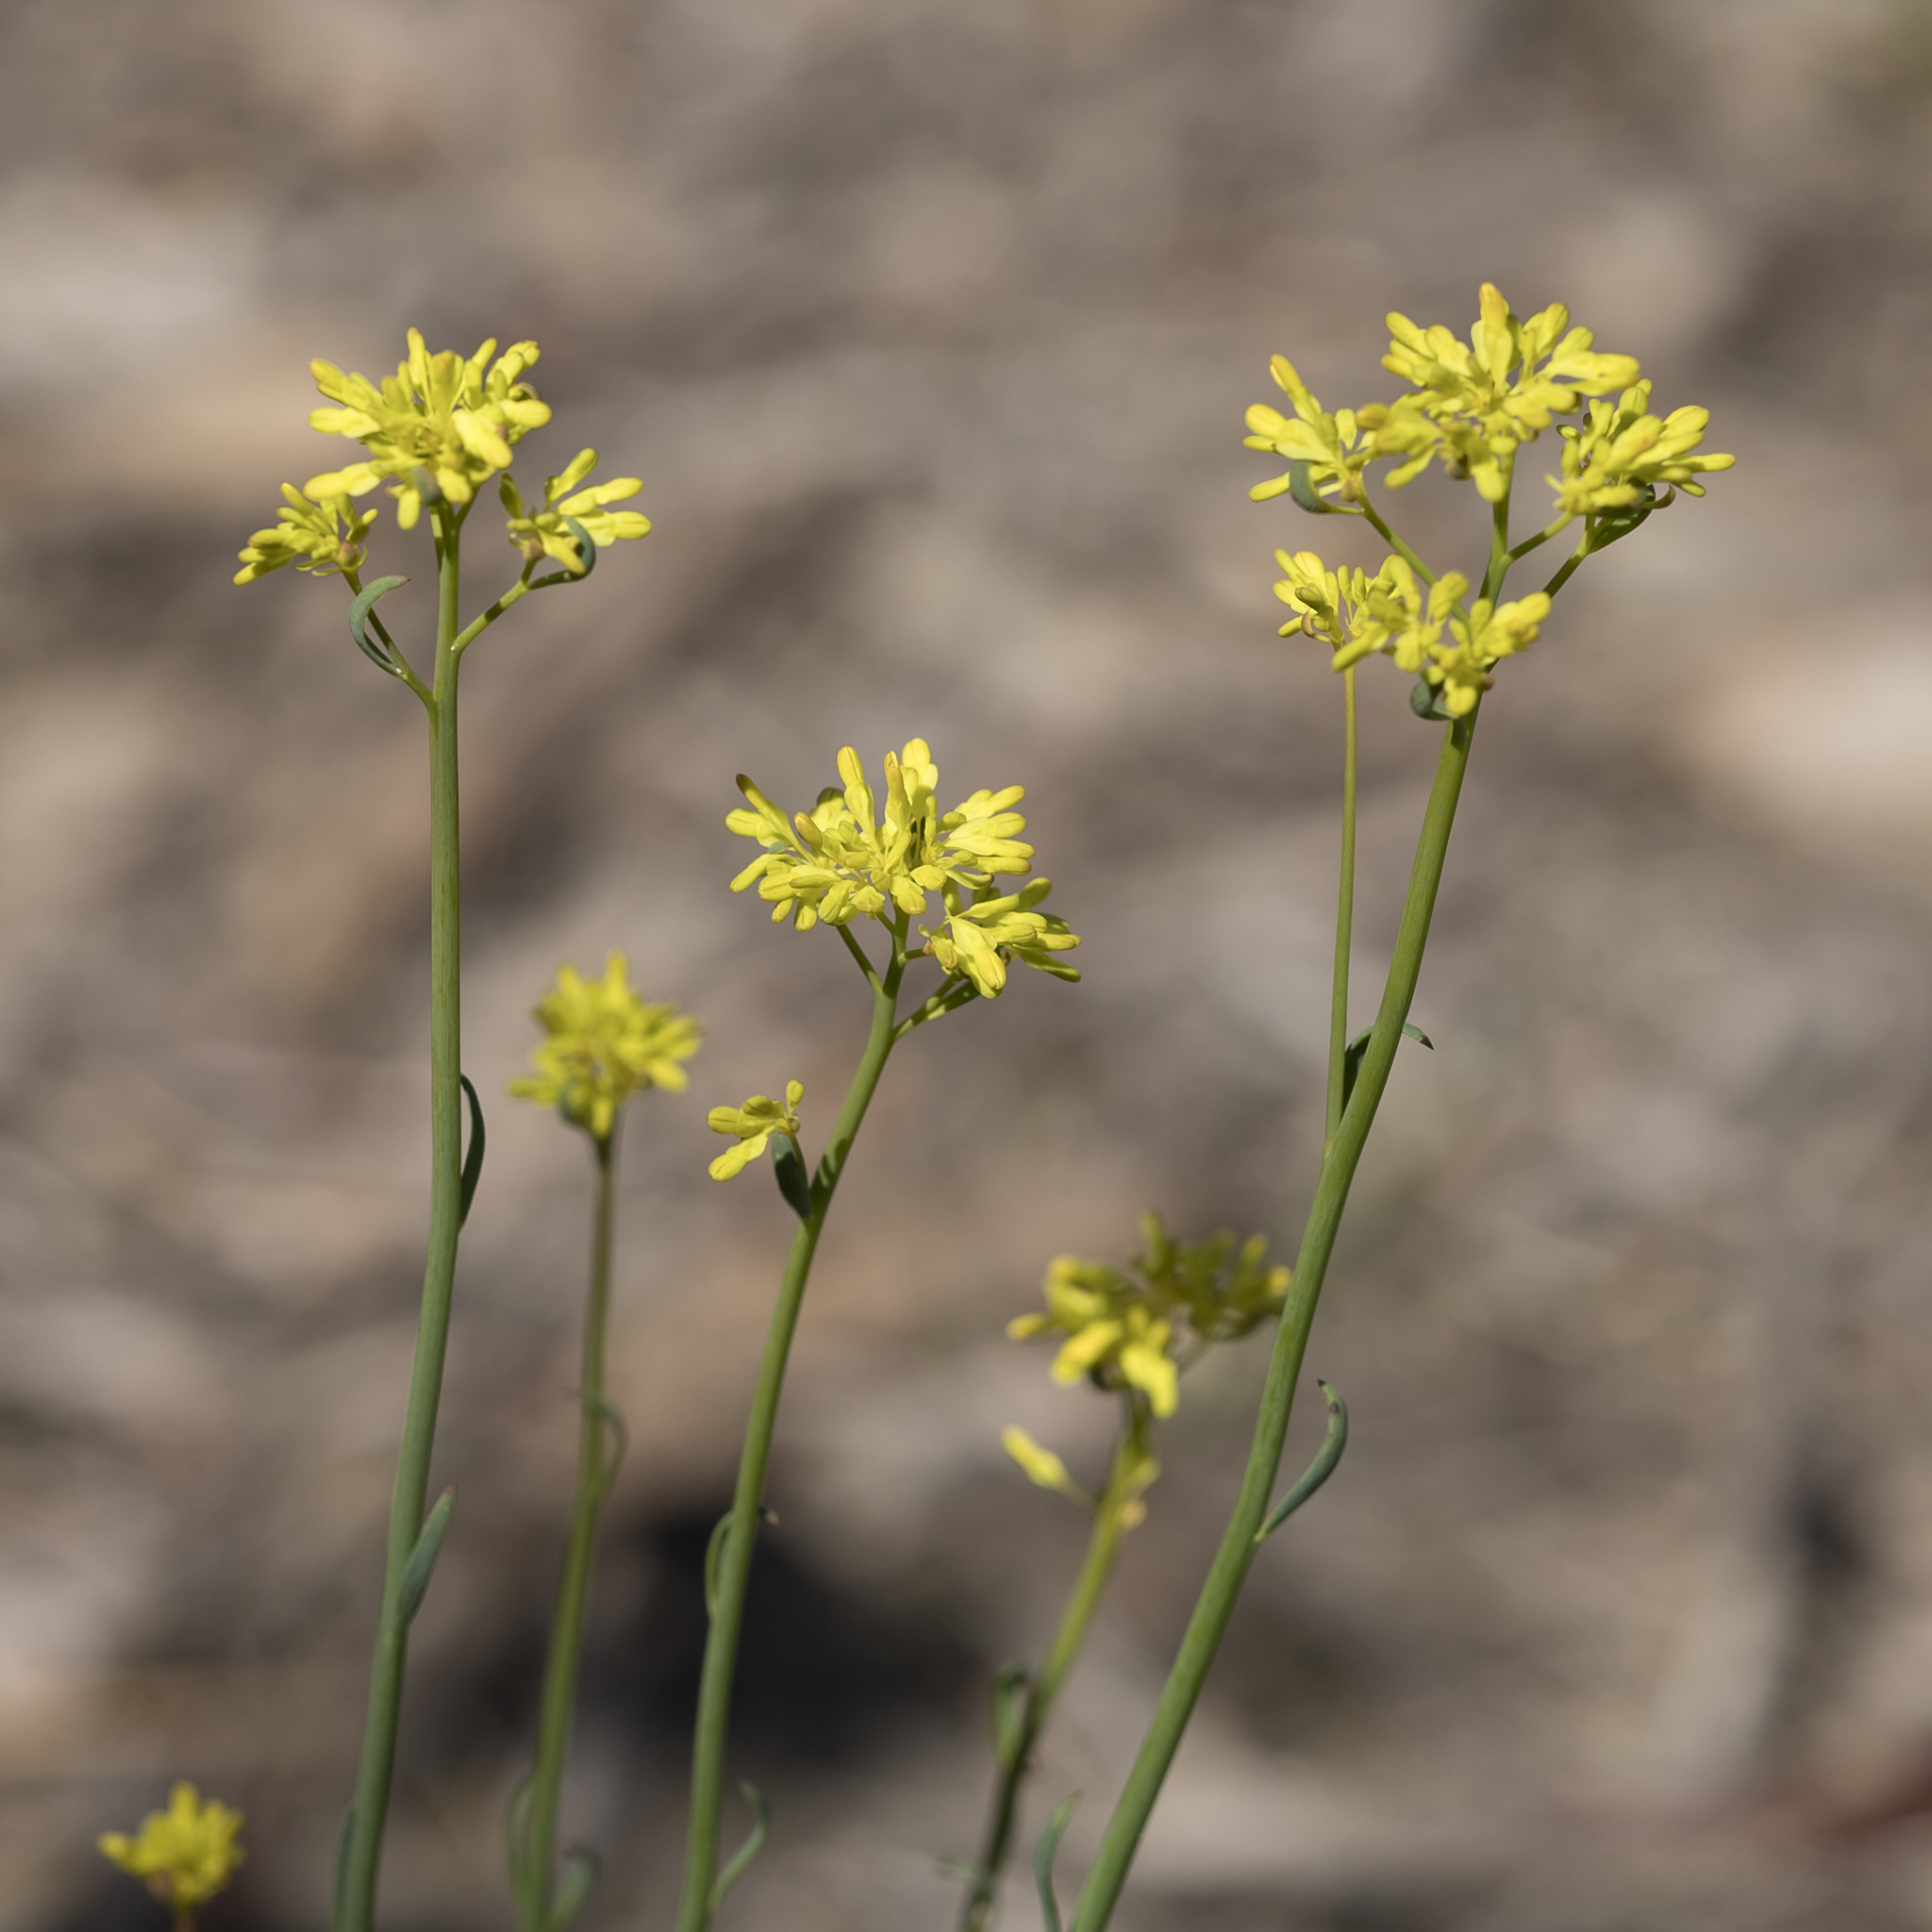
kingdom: Plantae
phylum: Tracheophyta
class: Magnoliopsida
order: Saxifragales
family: Haloragaceae
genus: Glischrocaryon
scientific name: Glischrocaryon behrii
